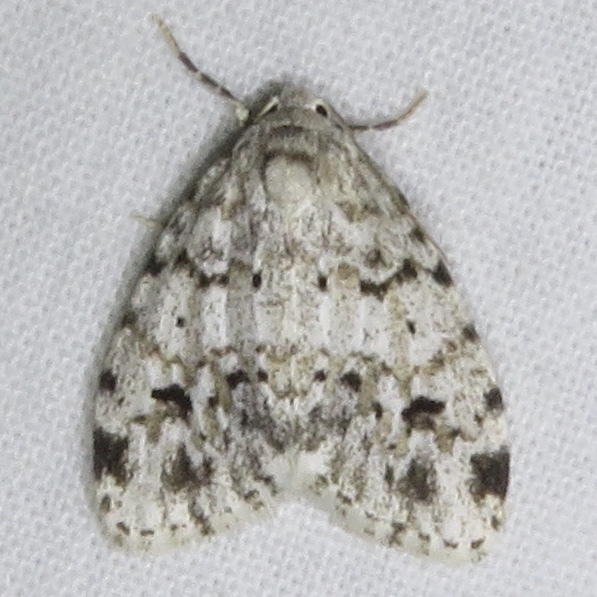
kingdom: Animalia
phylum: Arthropoda
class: Insecta
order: Lepidoptera
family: Erebidae
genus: Clemensia
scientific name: Clemensia albata
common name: Little white lichen moth
